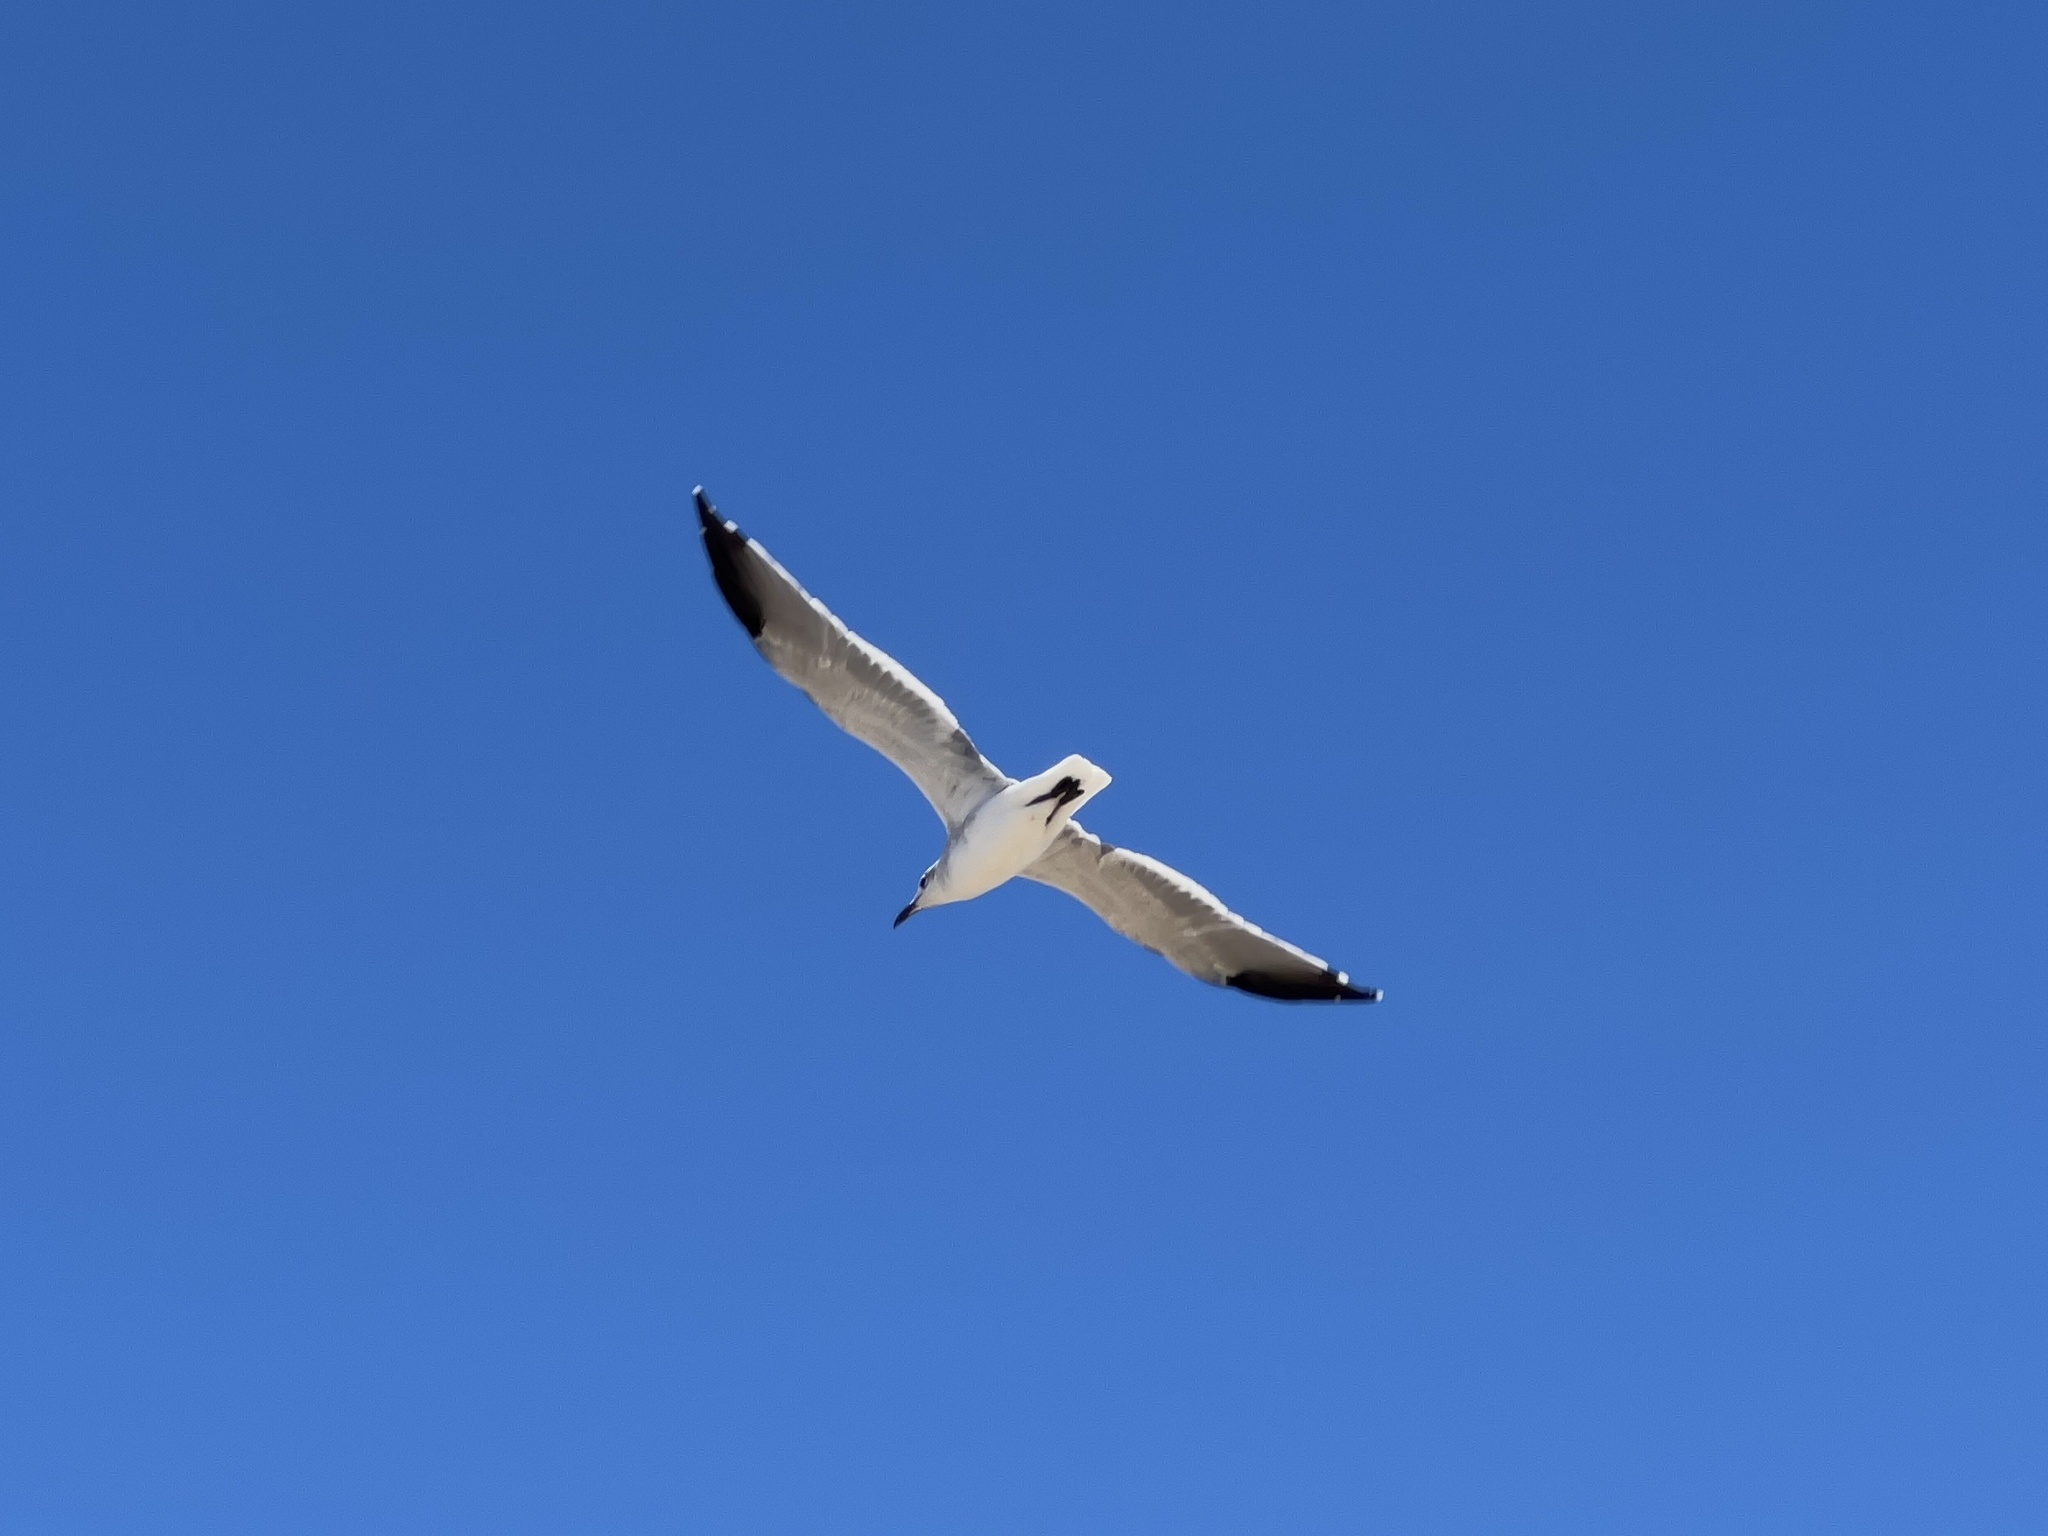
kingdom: Animalia
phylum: Chordata
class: Aves
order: Charadriiformes
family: Laridae
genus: Leucophaeus
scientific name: Leucophaeus atricilla
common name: Laughing gull
